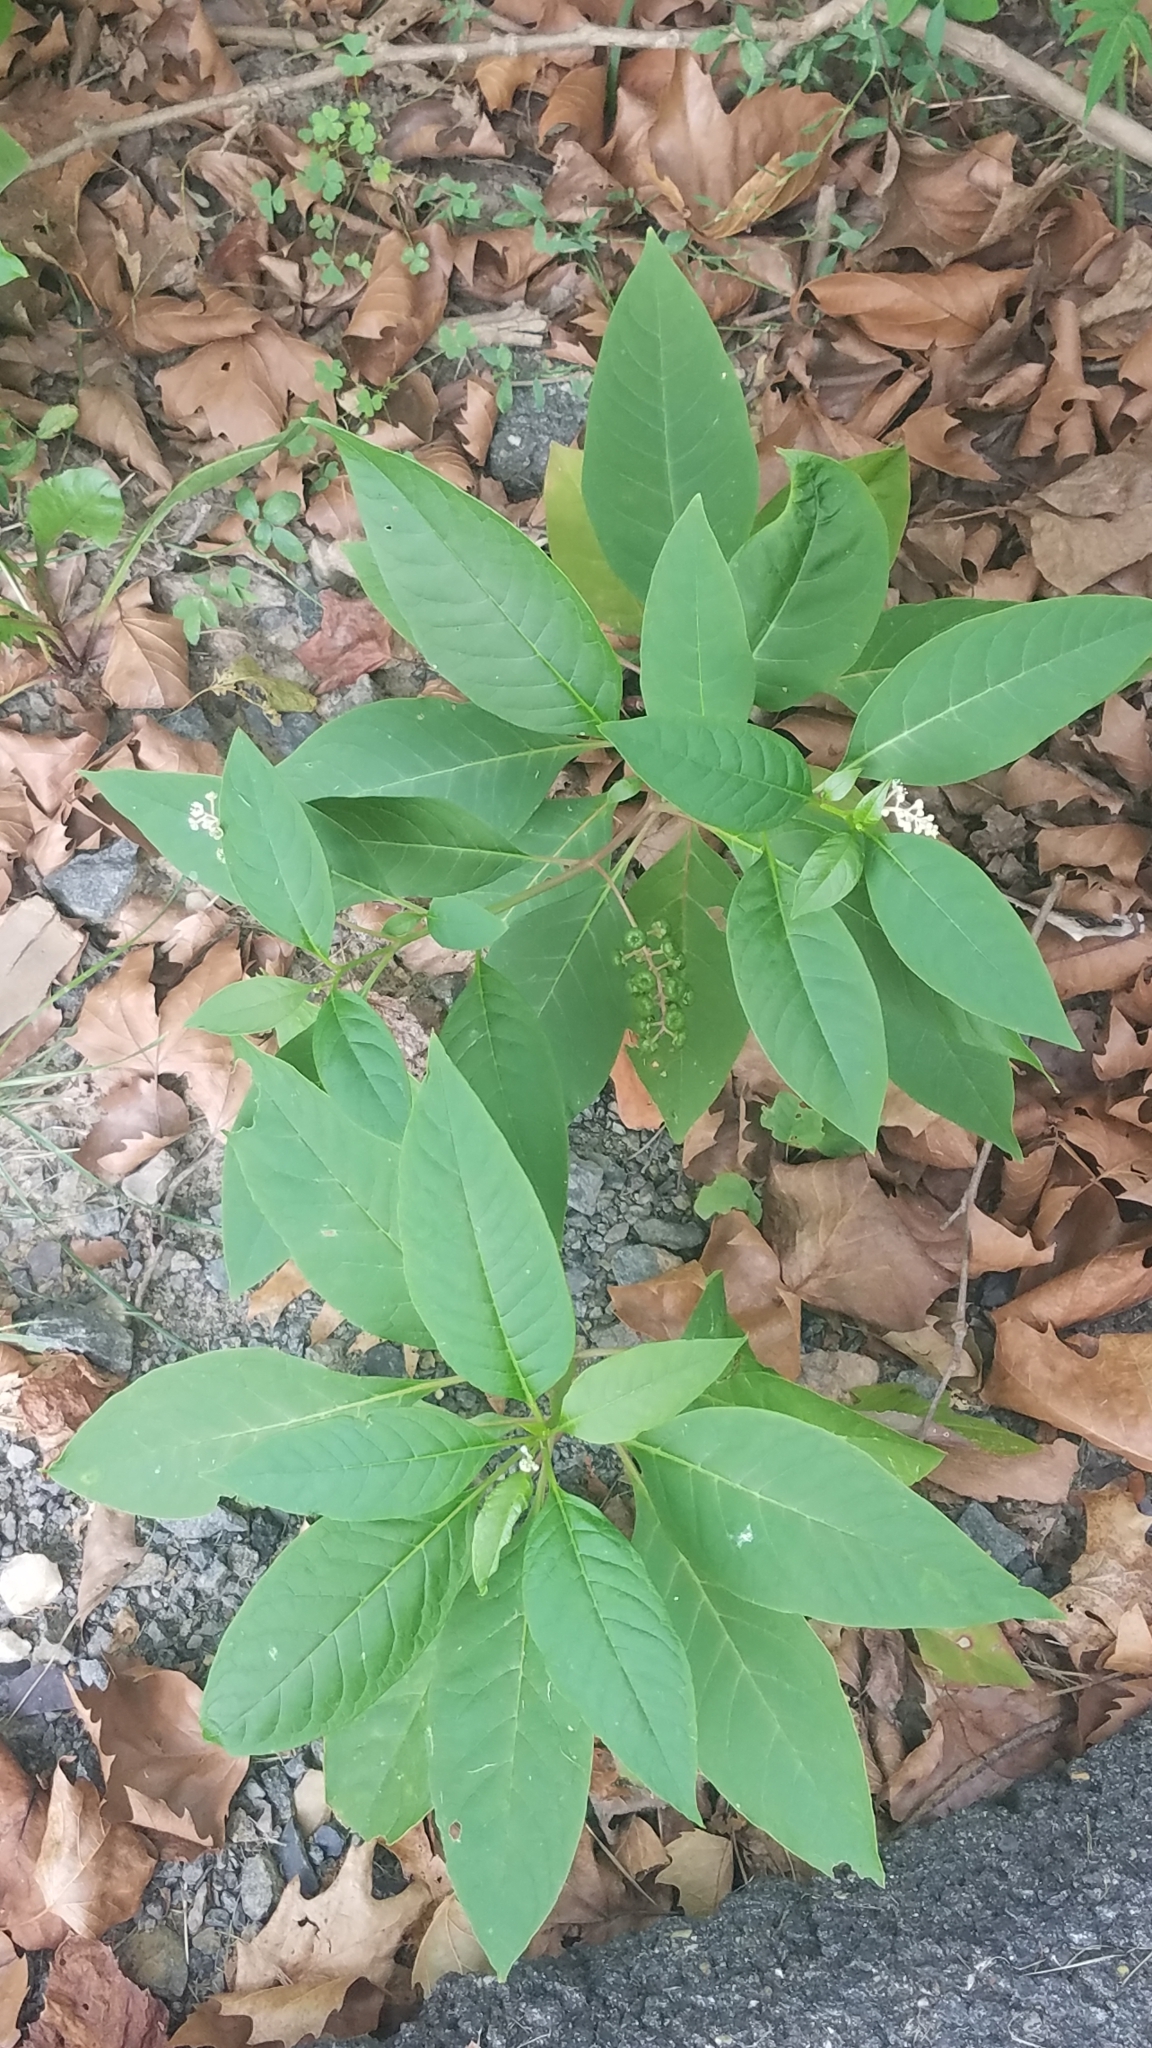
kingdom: Plantae
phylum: Tracheophyta
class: Magnoliopsida
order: Caryophyllales
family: Phytolaccaceae
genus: Phytolacca
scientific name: Phytolacca americana
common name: American pokeweed
